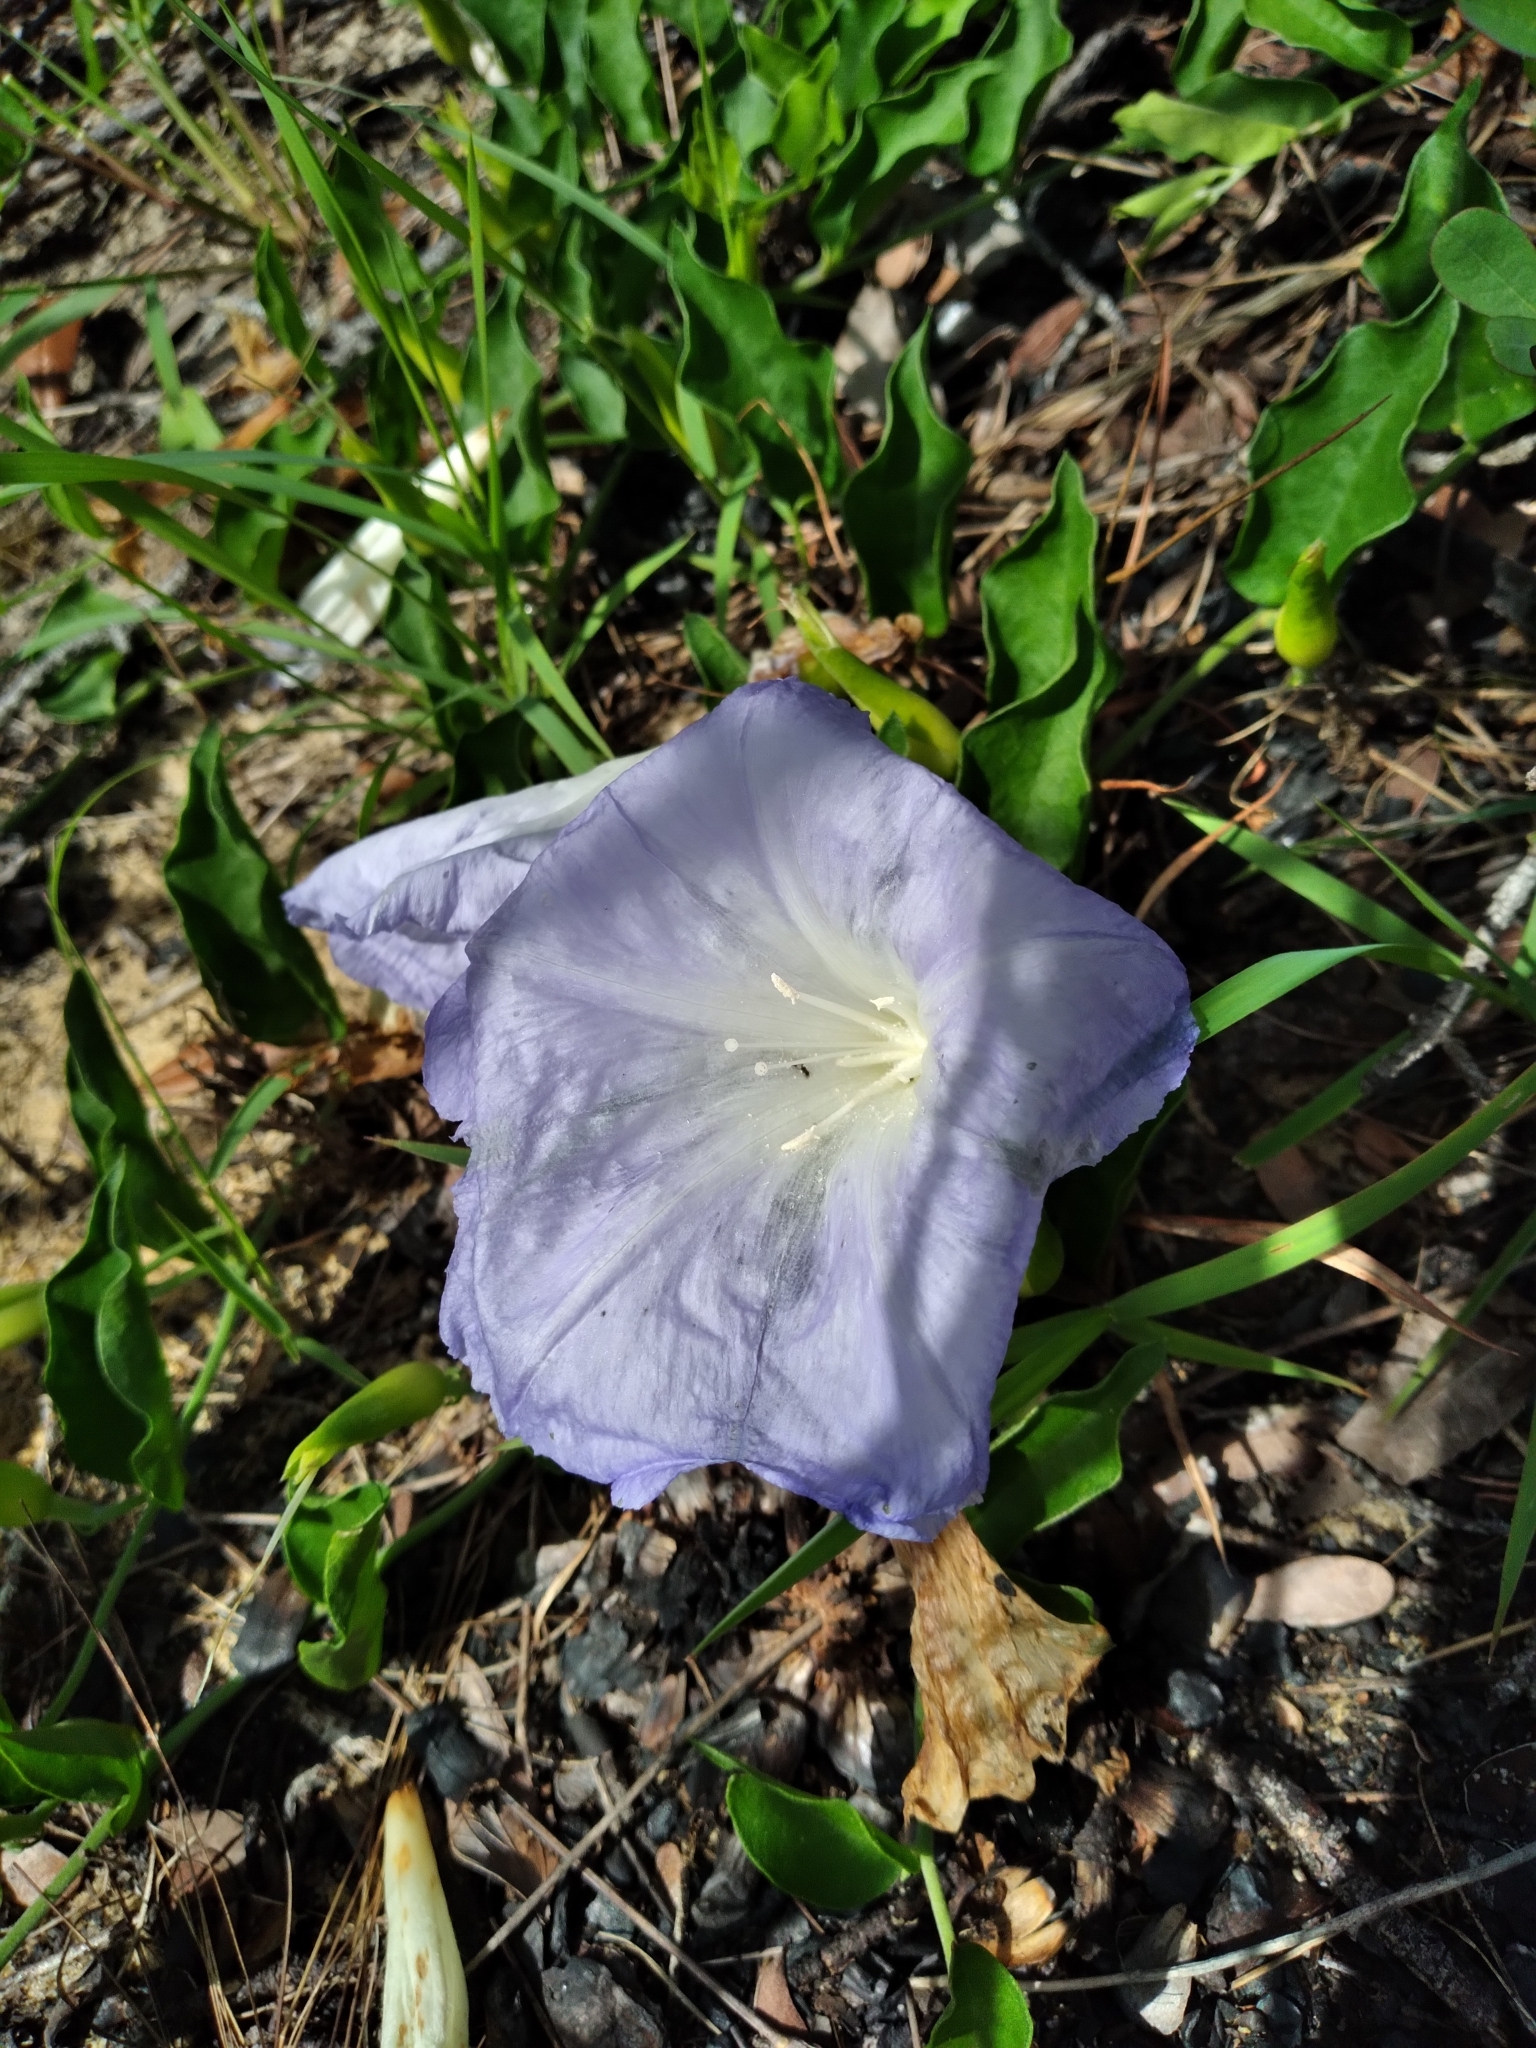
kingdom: Plantae
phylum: Tracheophyta
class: Magnoliopsida
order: Solanales
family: Convolvulaceae
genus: Bonamia
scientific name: Bonamia grandiflora
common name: Florida bonamia
